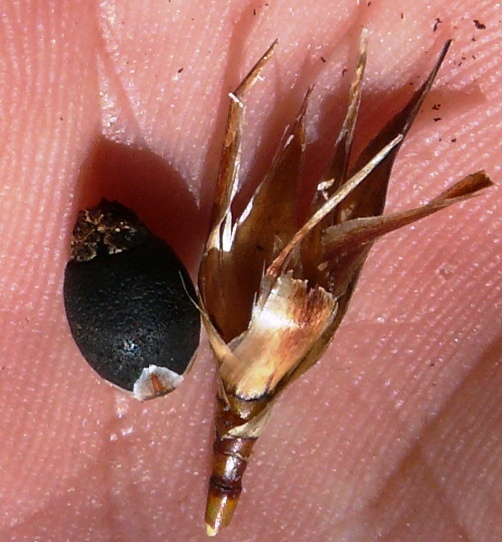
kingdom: Plantae
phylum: Tracheophyta
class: Liliopsida
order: Poales
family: Restionaceae
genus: Willdenowia
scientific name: Willdenowia incurvata
